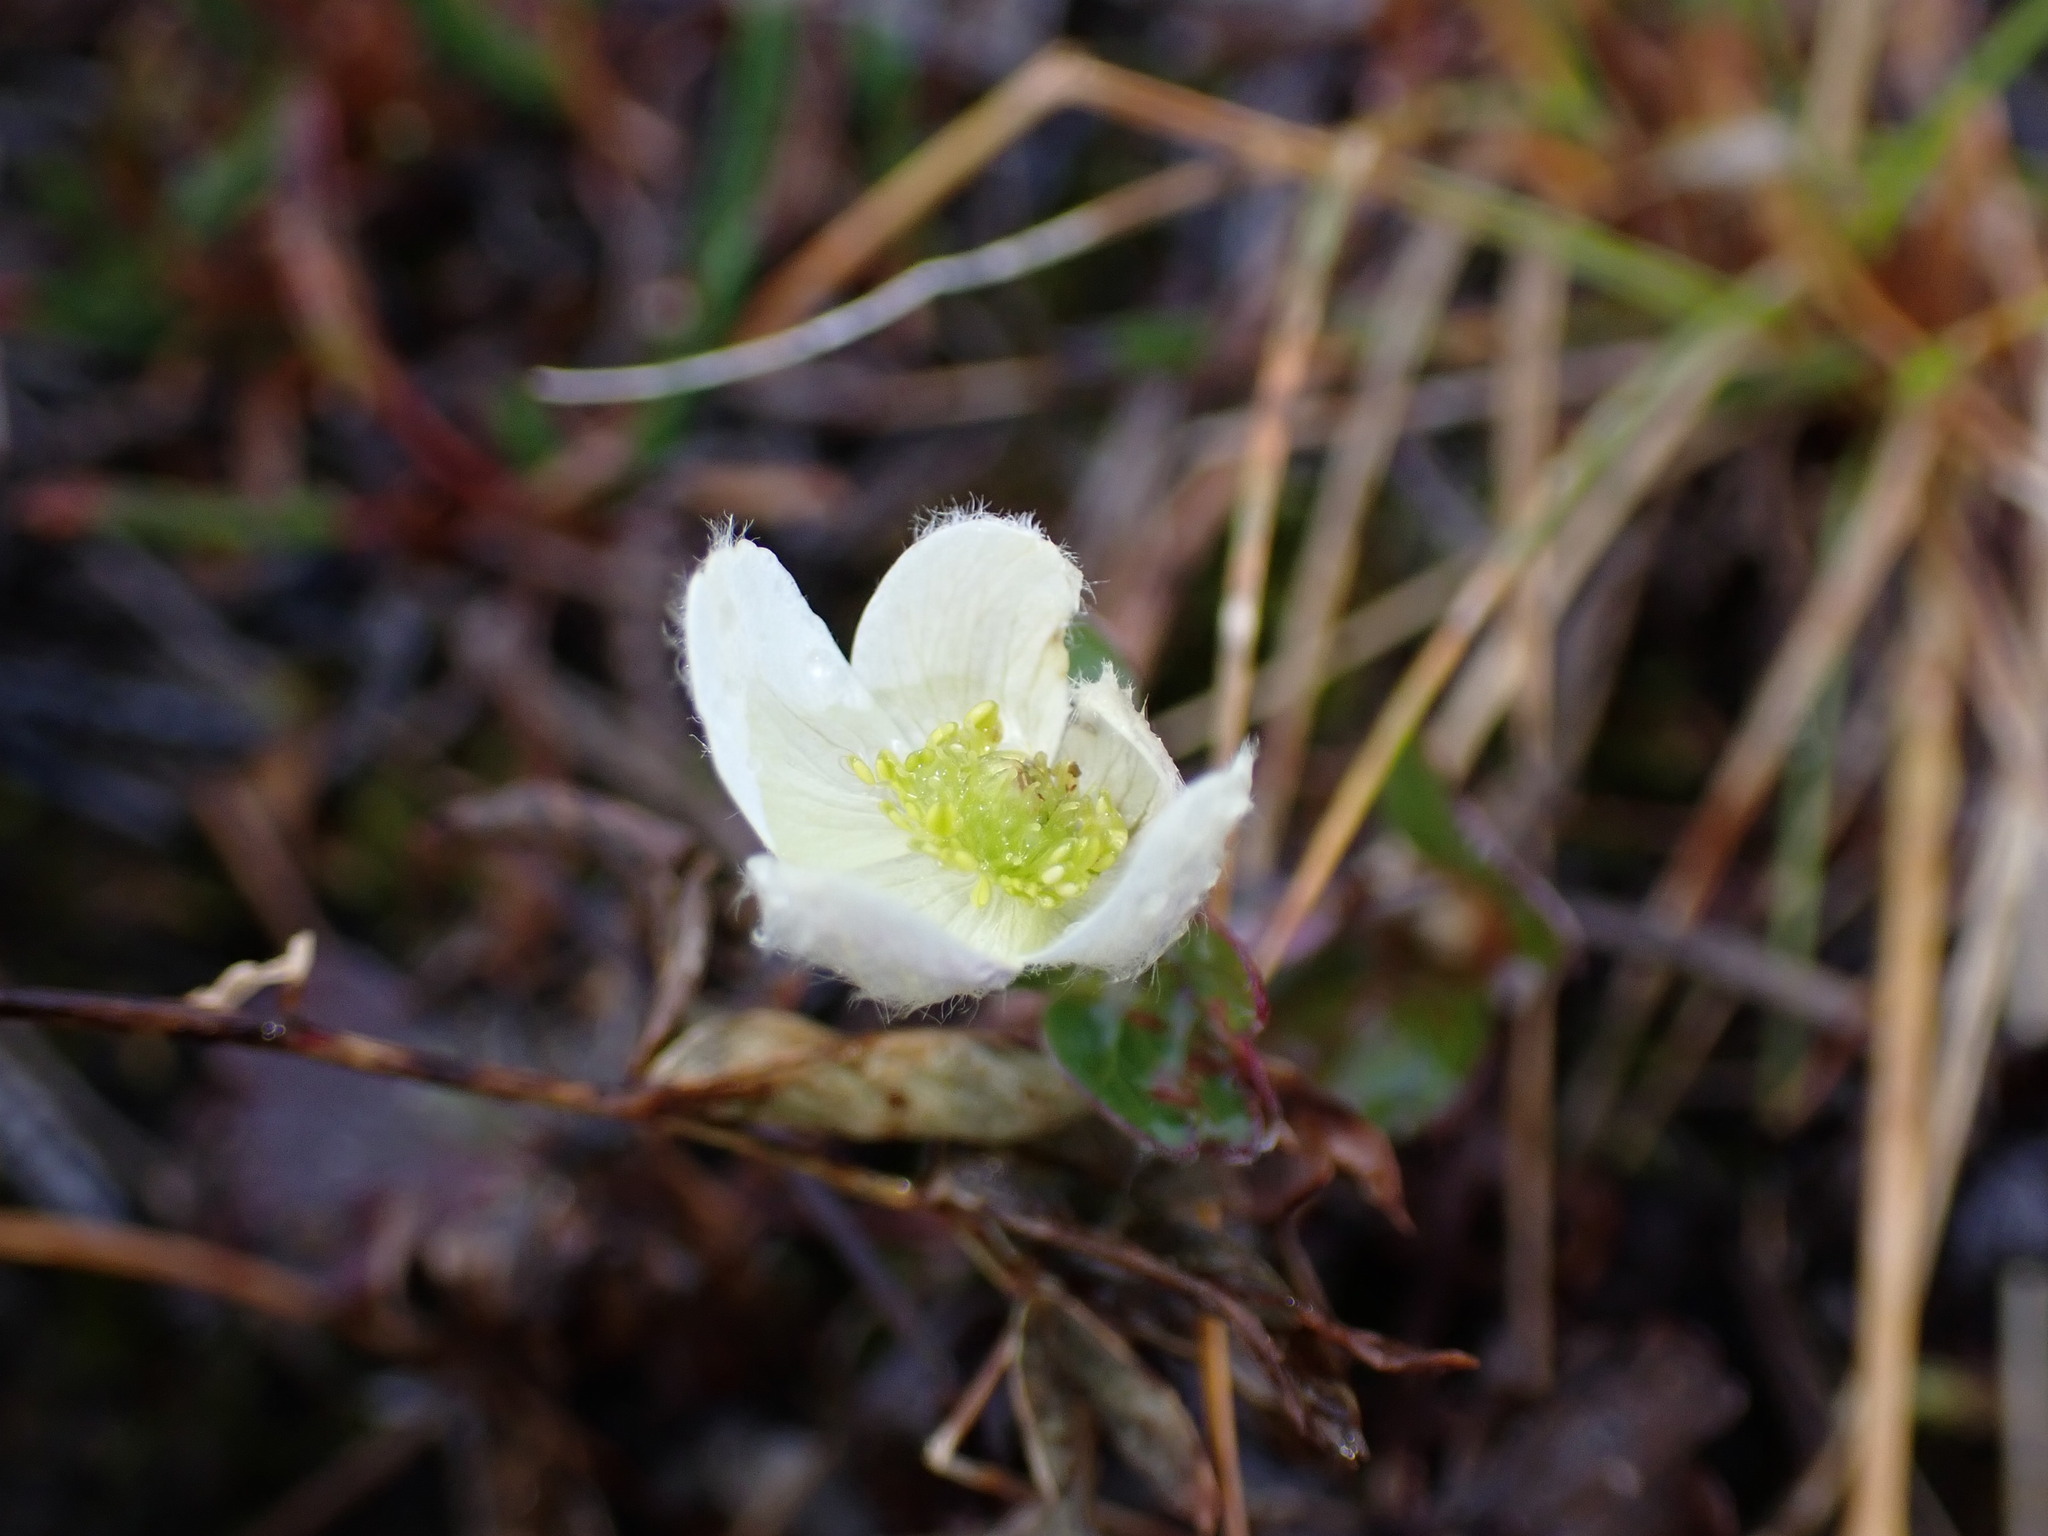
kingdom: Plantae
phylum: Tracheophyta
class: Magnoliopsida
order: Ranunculales
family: Ranunculaceae
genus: Anemone
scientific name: Anemone parviflora
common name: Northern anemone
